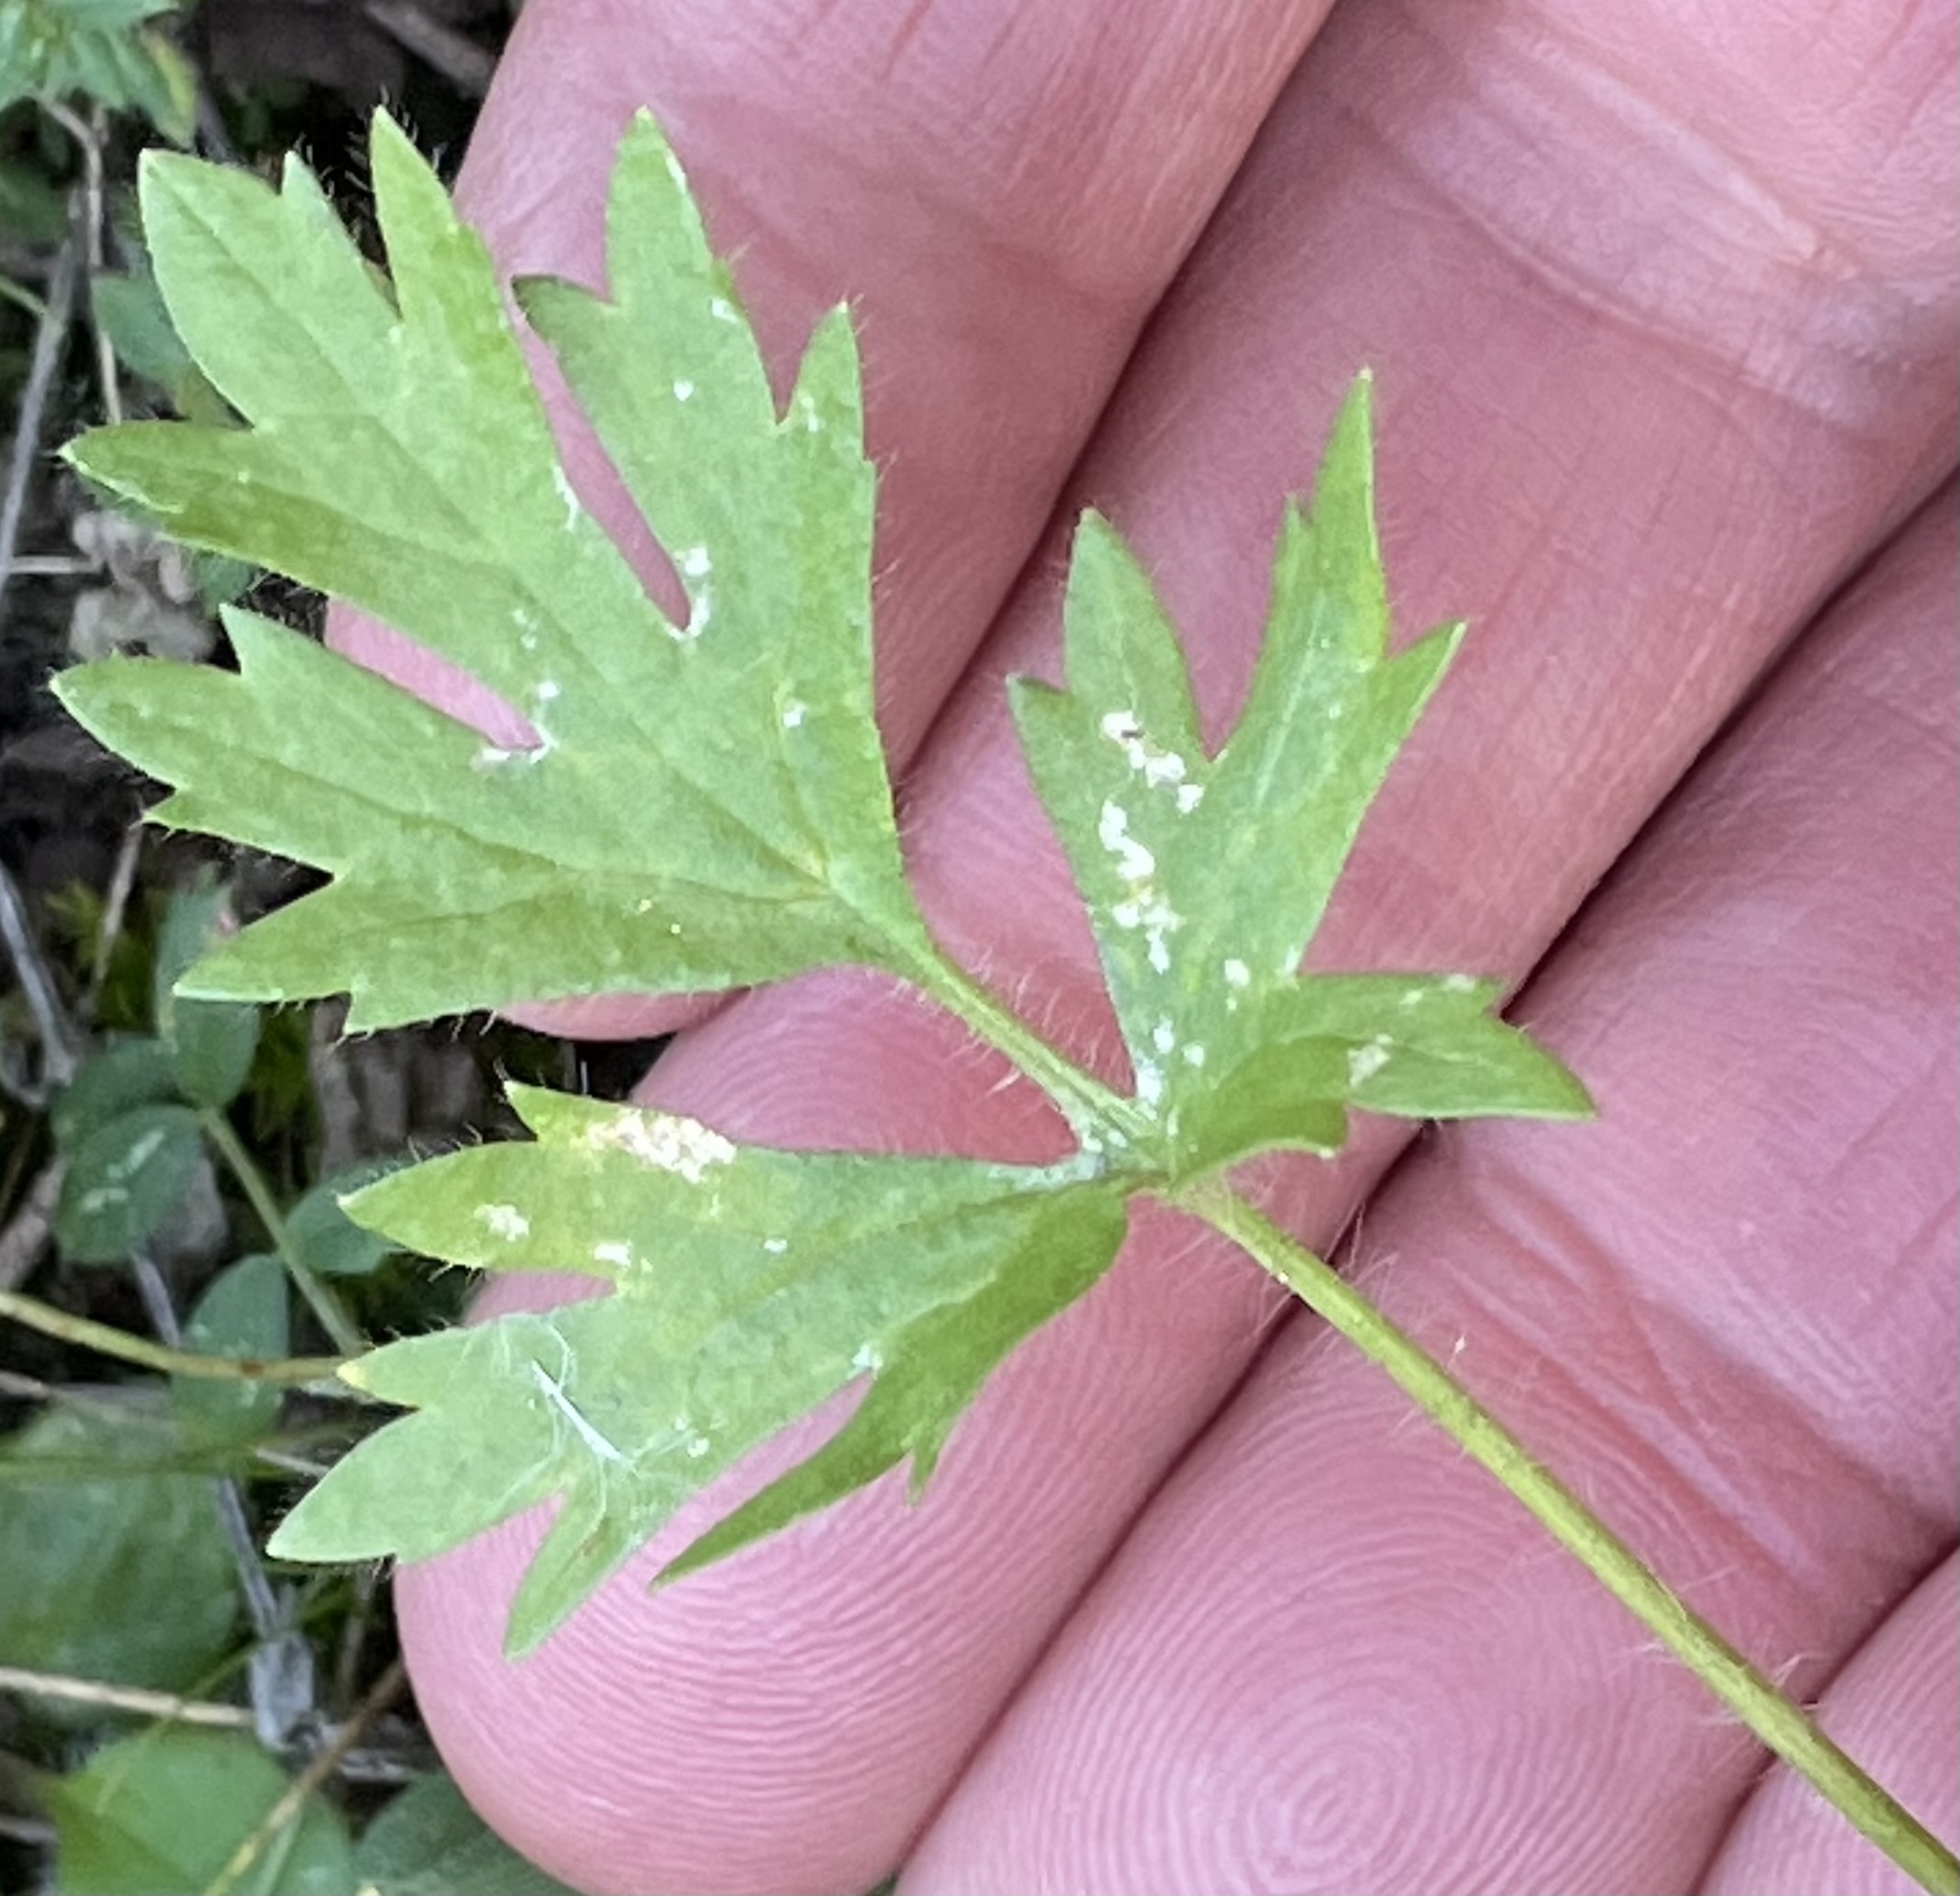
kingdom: Plantae
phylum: Tracheophyta
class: Magnoliopsida
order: Ranunculales
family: Ranunculaceae
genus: Ranunculus
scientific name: Ranunculus californicus
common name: California buttercup
